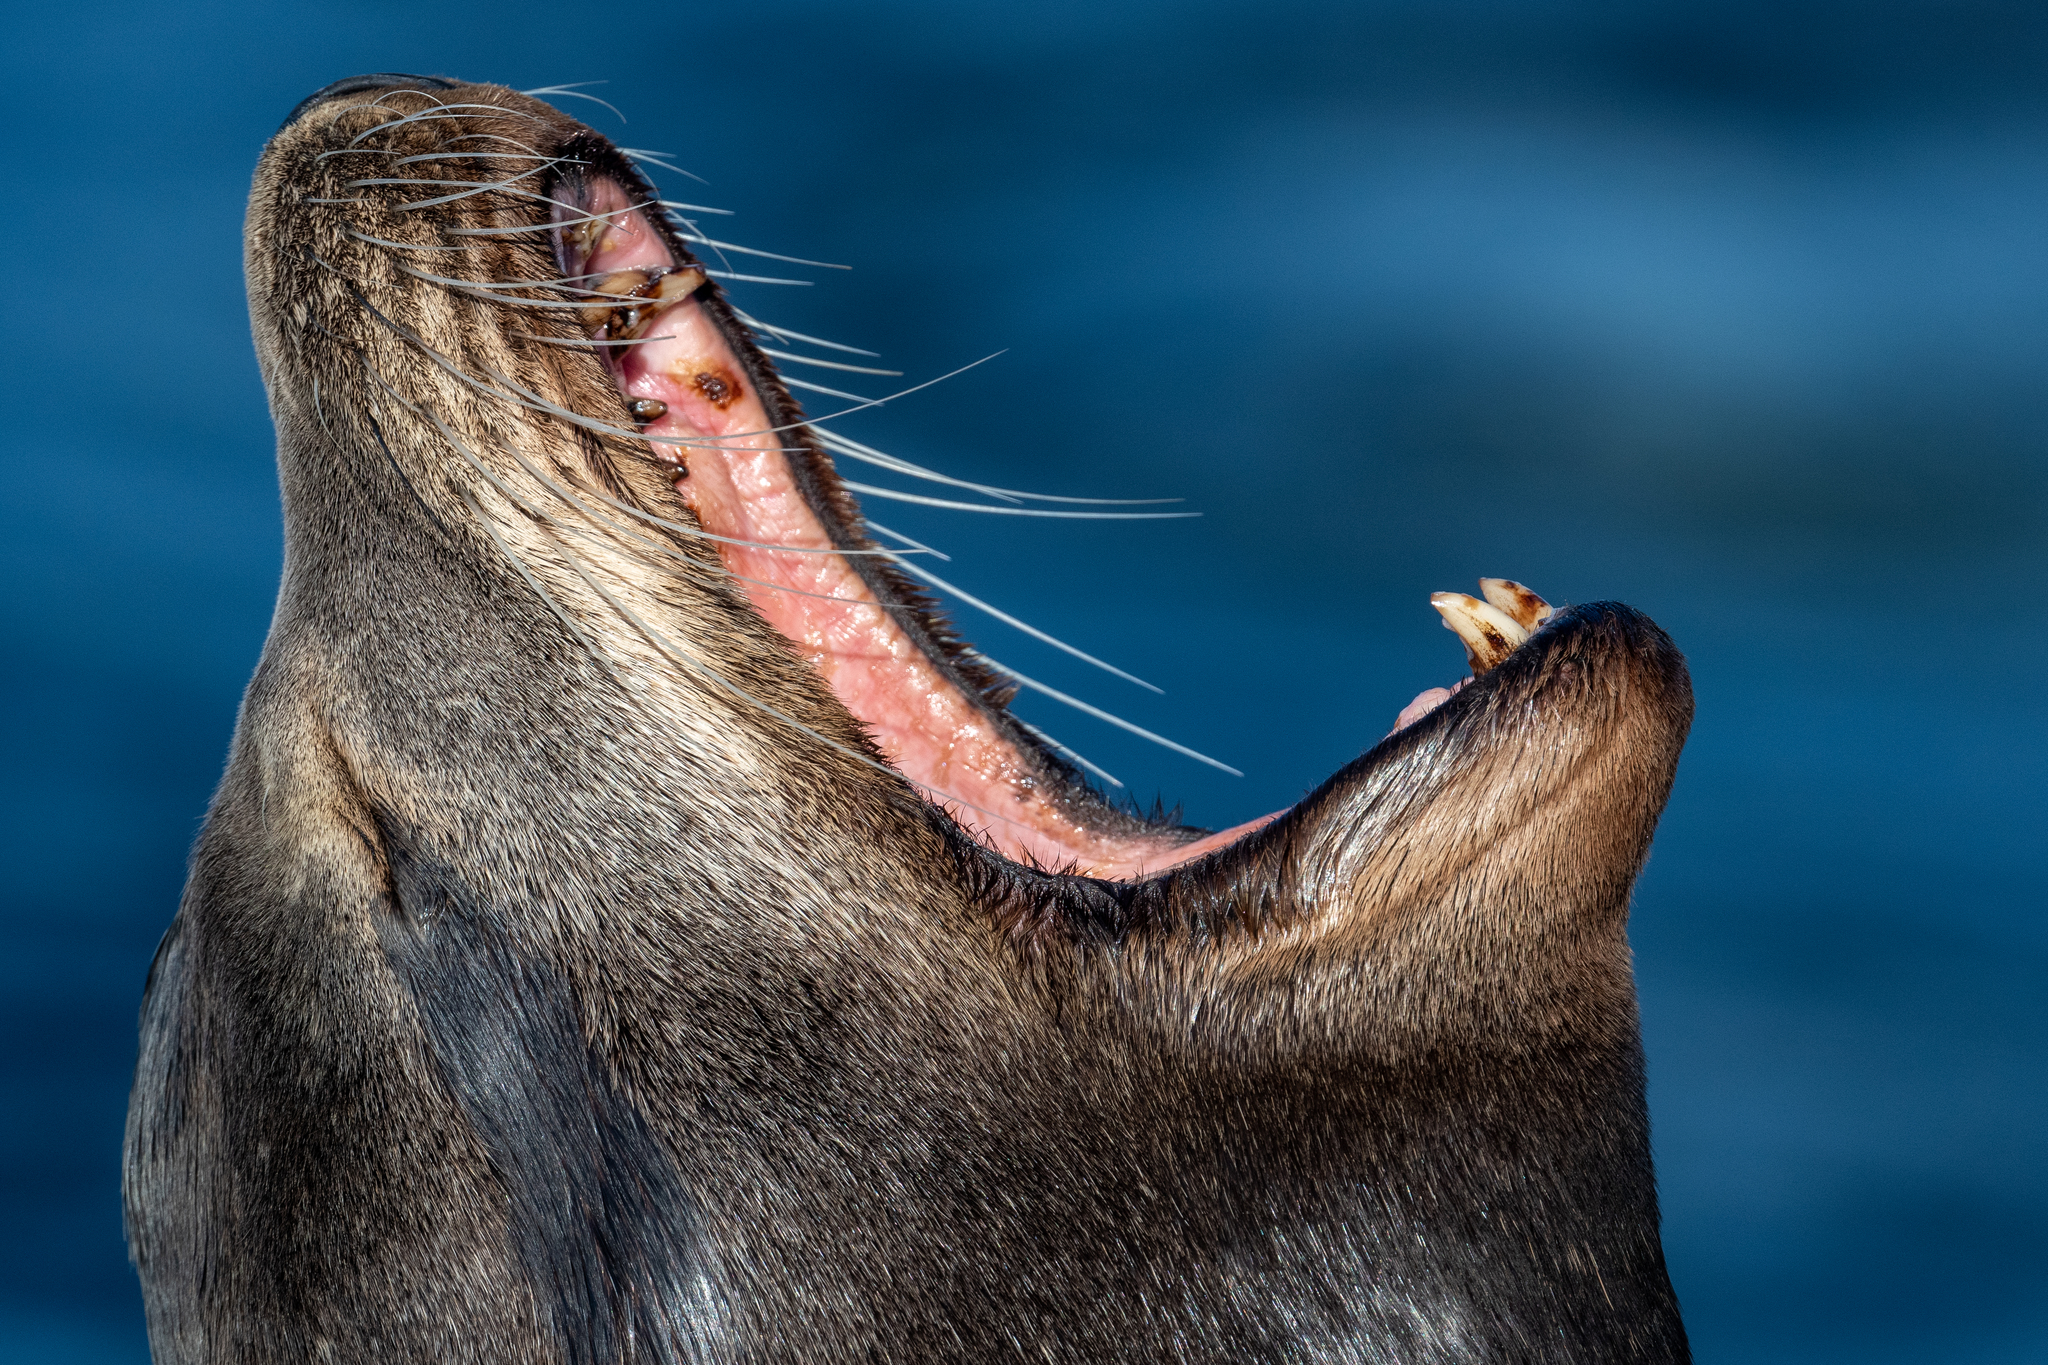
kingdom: Animalia
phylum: Chordata
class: Mammalia
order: Carnivora
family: Otariidae
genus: Zalophus
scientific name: Zalophus californianus
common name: California sea lion
